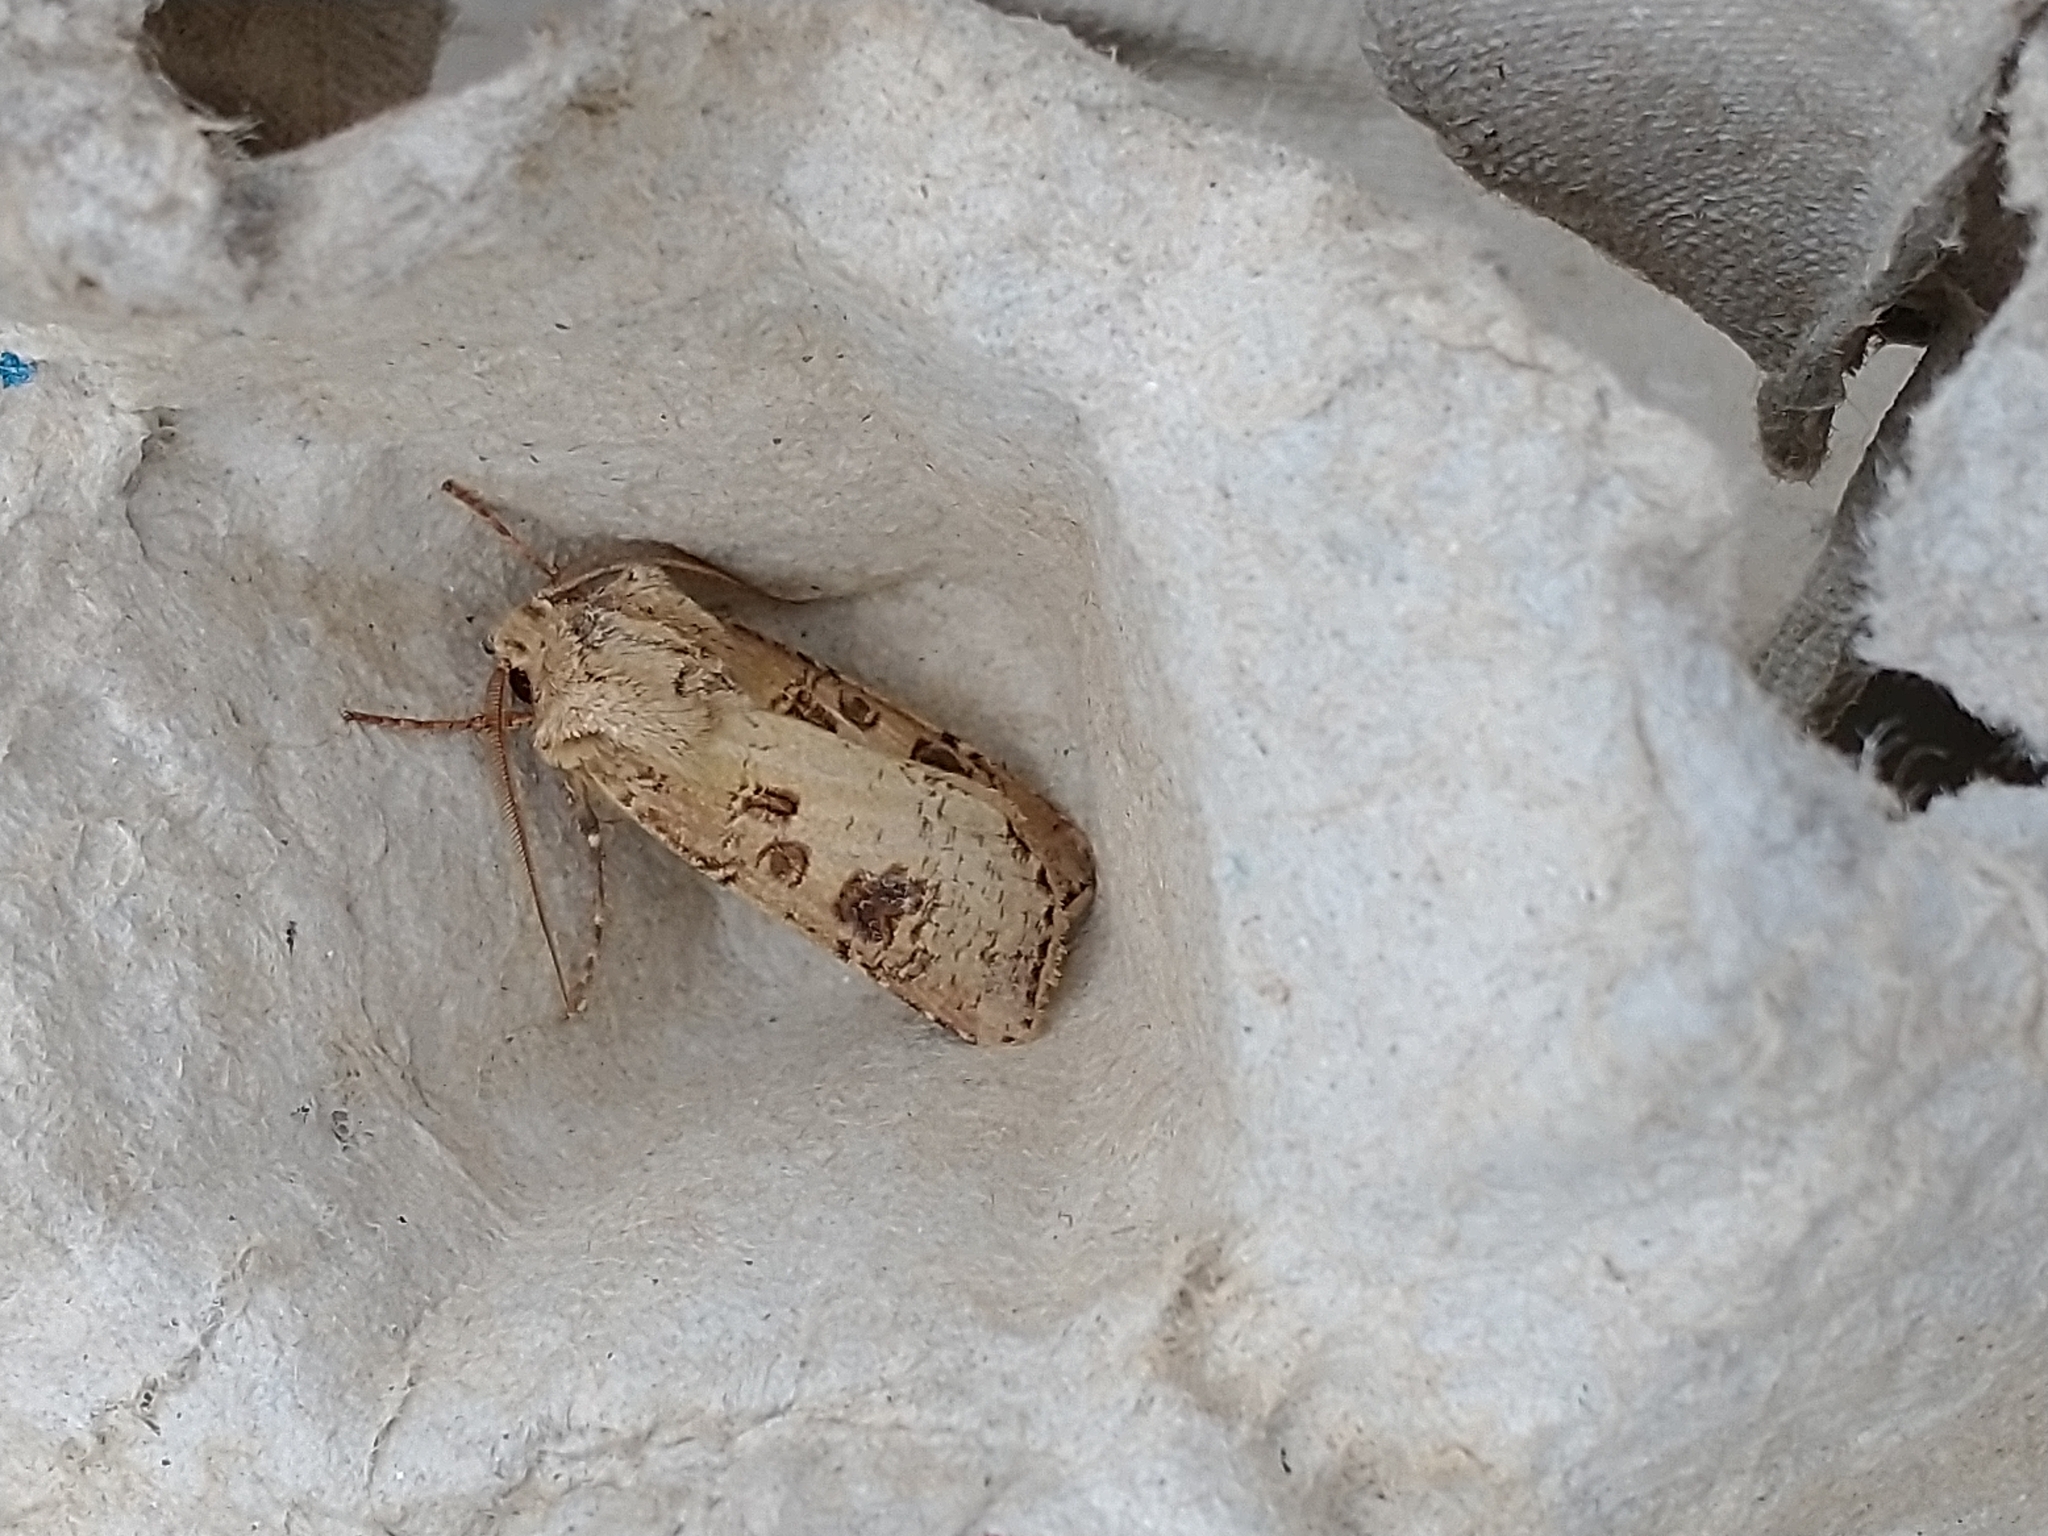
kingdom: Animalia
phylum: Arthropoda
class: Insecta
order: Lepidoptera
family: Noctuidae
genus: Agrotis
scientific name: Agrotis clavis
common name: Heart and club
